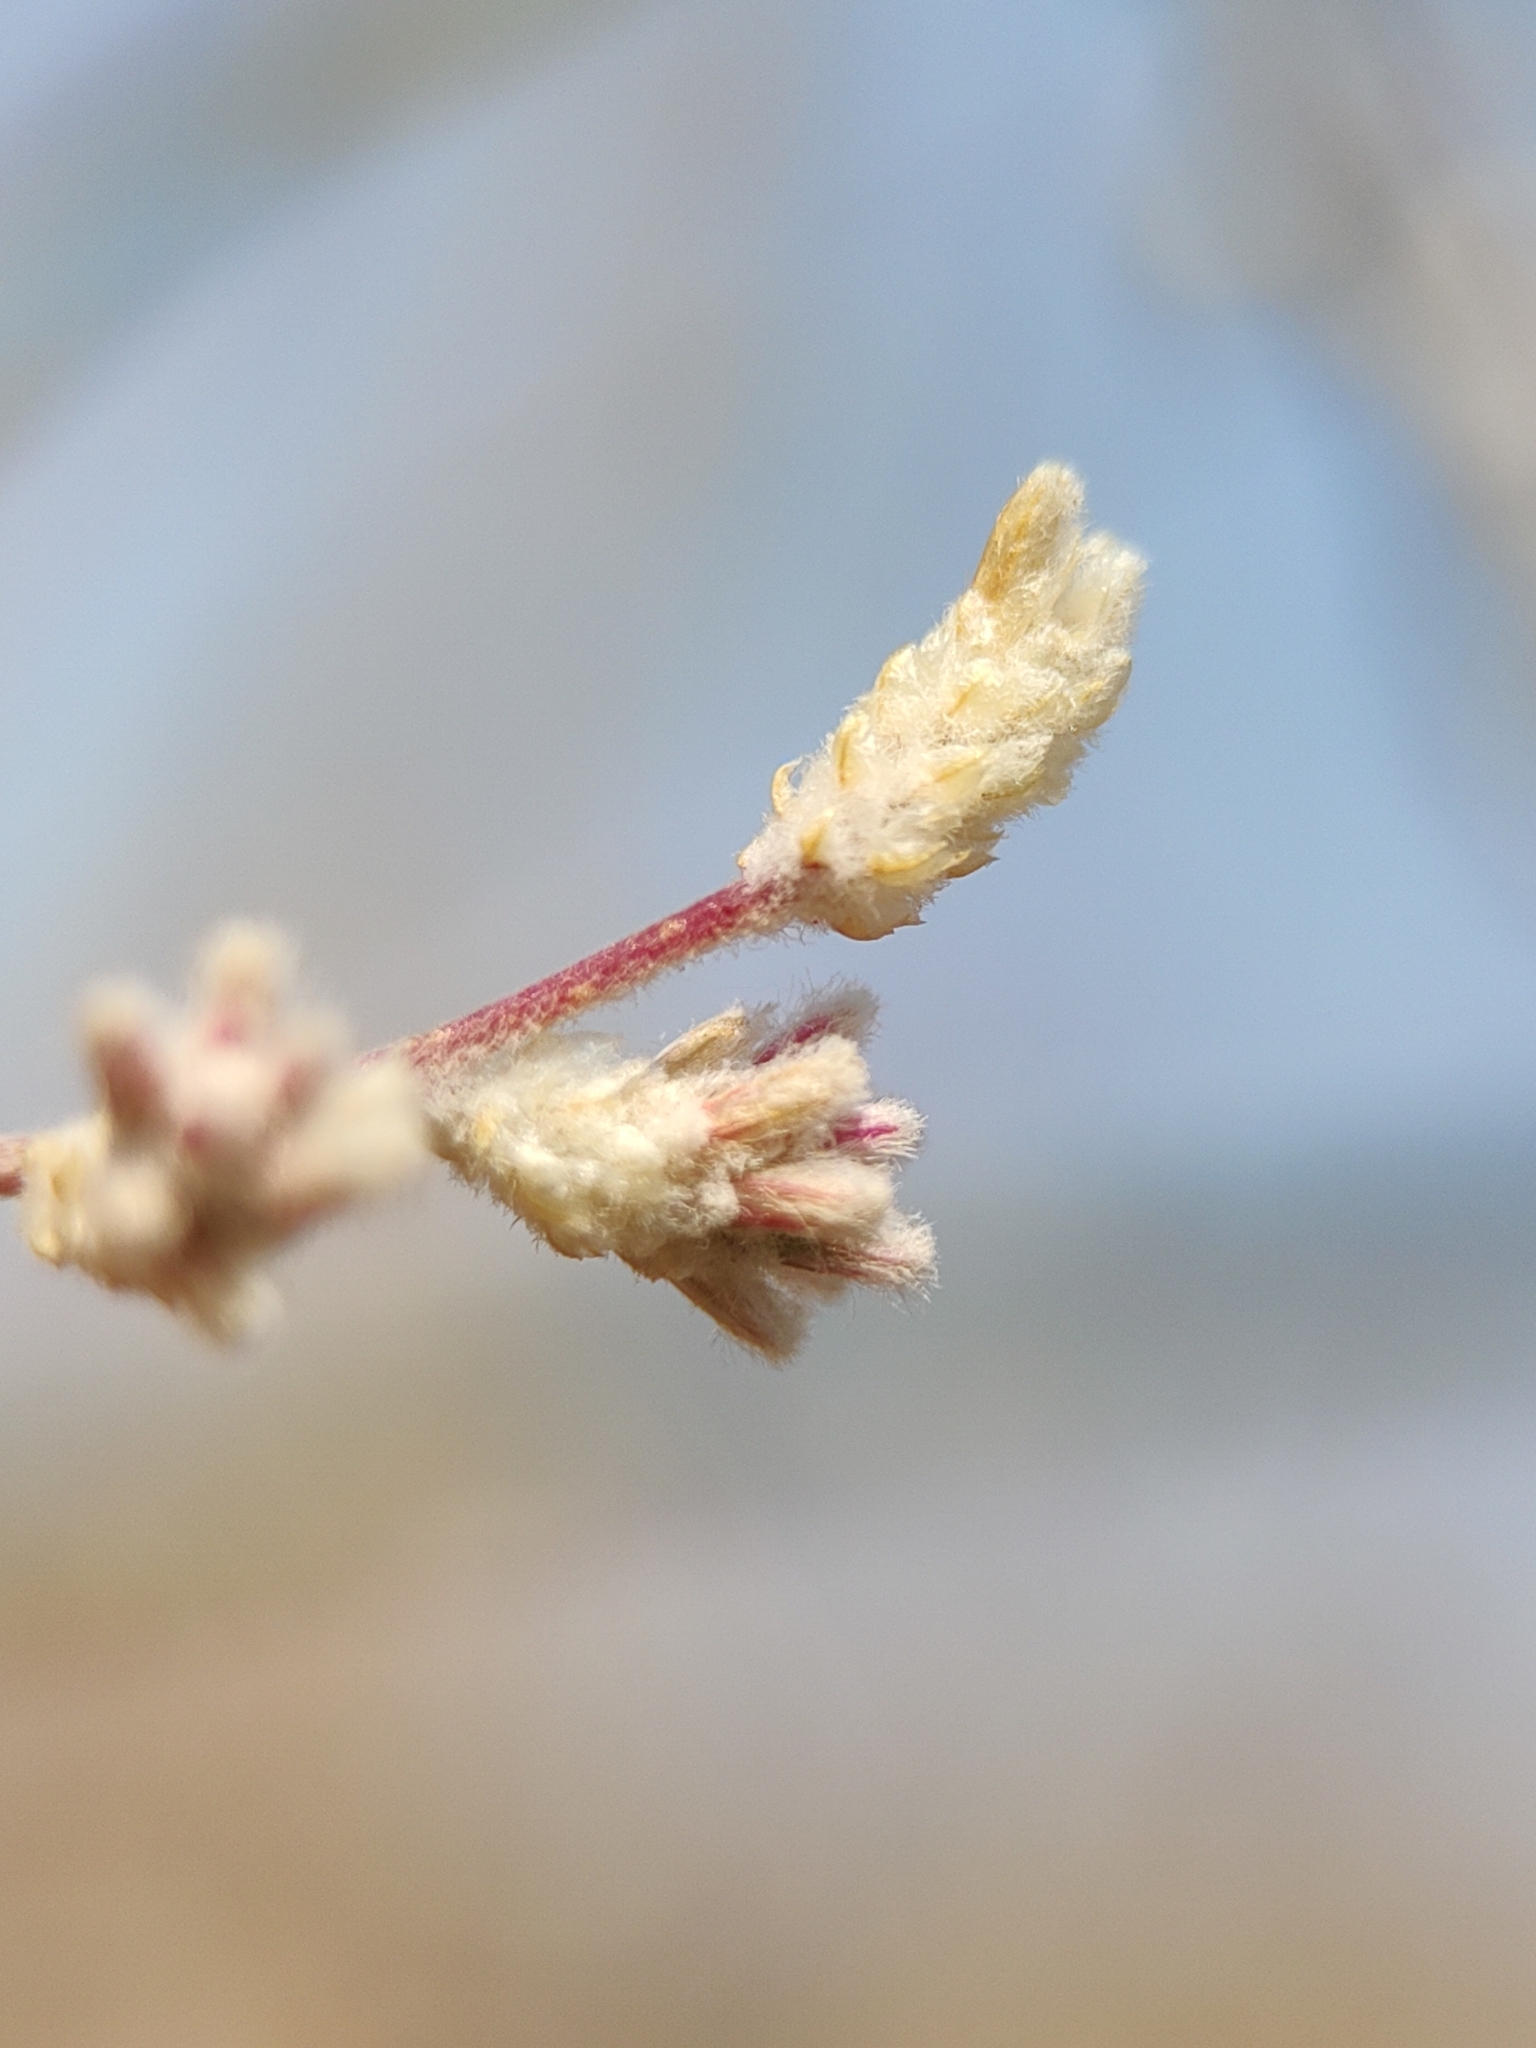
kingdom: Plantae
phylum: Tracheophyta
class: Magnoliopsida
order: Caryophyllales
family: Amaranthaceae
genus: Iresine
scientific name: Iresine diffusa
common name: Juba's-bush
